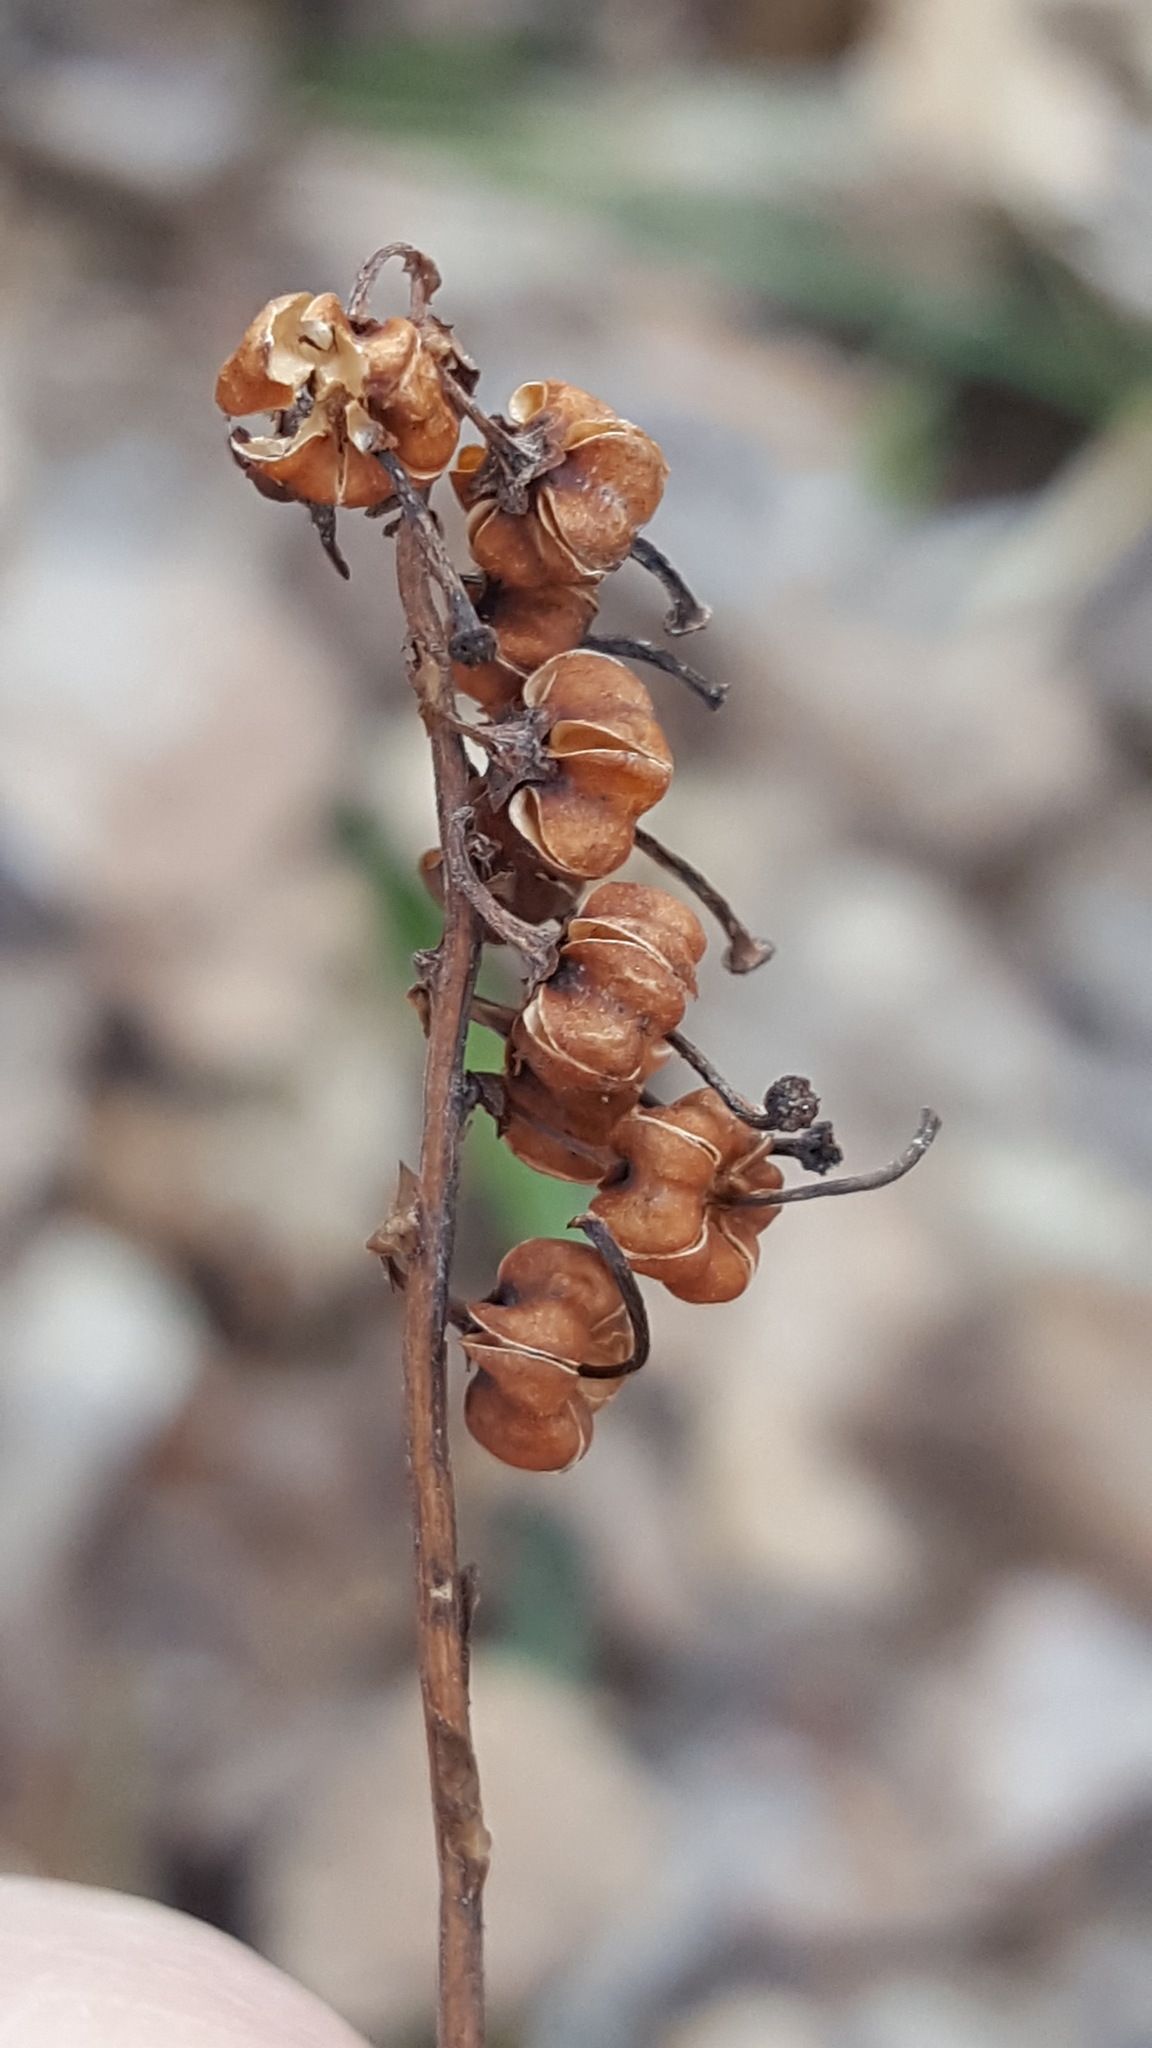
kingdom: Plantae
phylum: Tracheophyta
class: Magnoliopsida
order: Ericales
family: Ericaceae
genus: Orthilia
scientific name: Orthilia secunda
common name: One-sided orthilia
